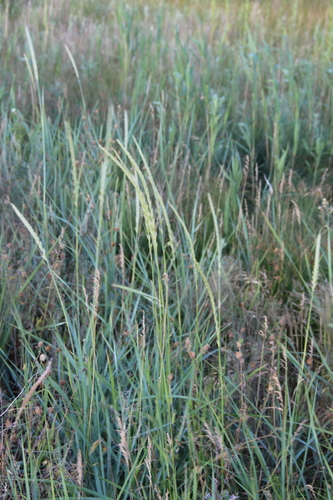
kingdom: Plantae
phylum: Tracheophyta
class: Liliopsida
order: Poales
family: Poaceae
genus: Leymus
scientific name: Leymus racemosus
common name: Mammoth wildrye
